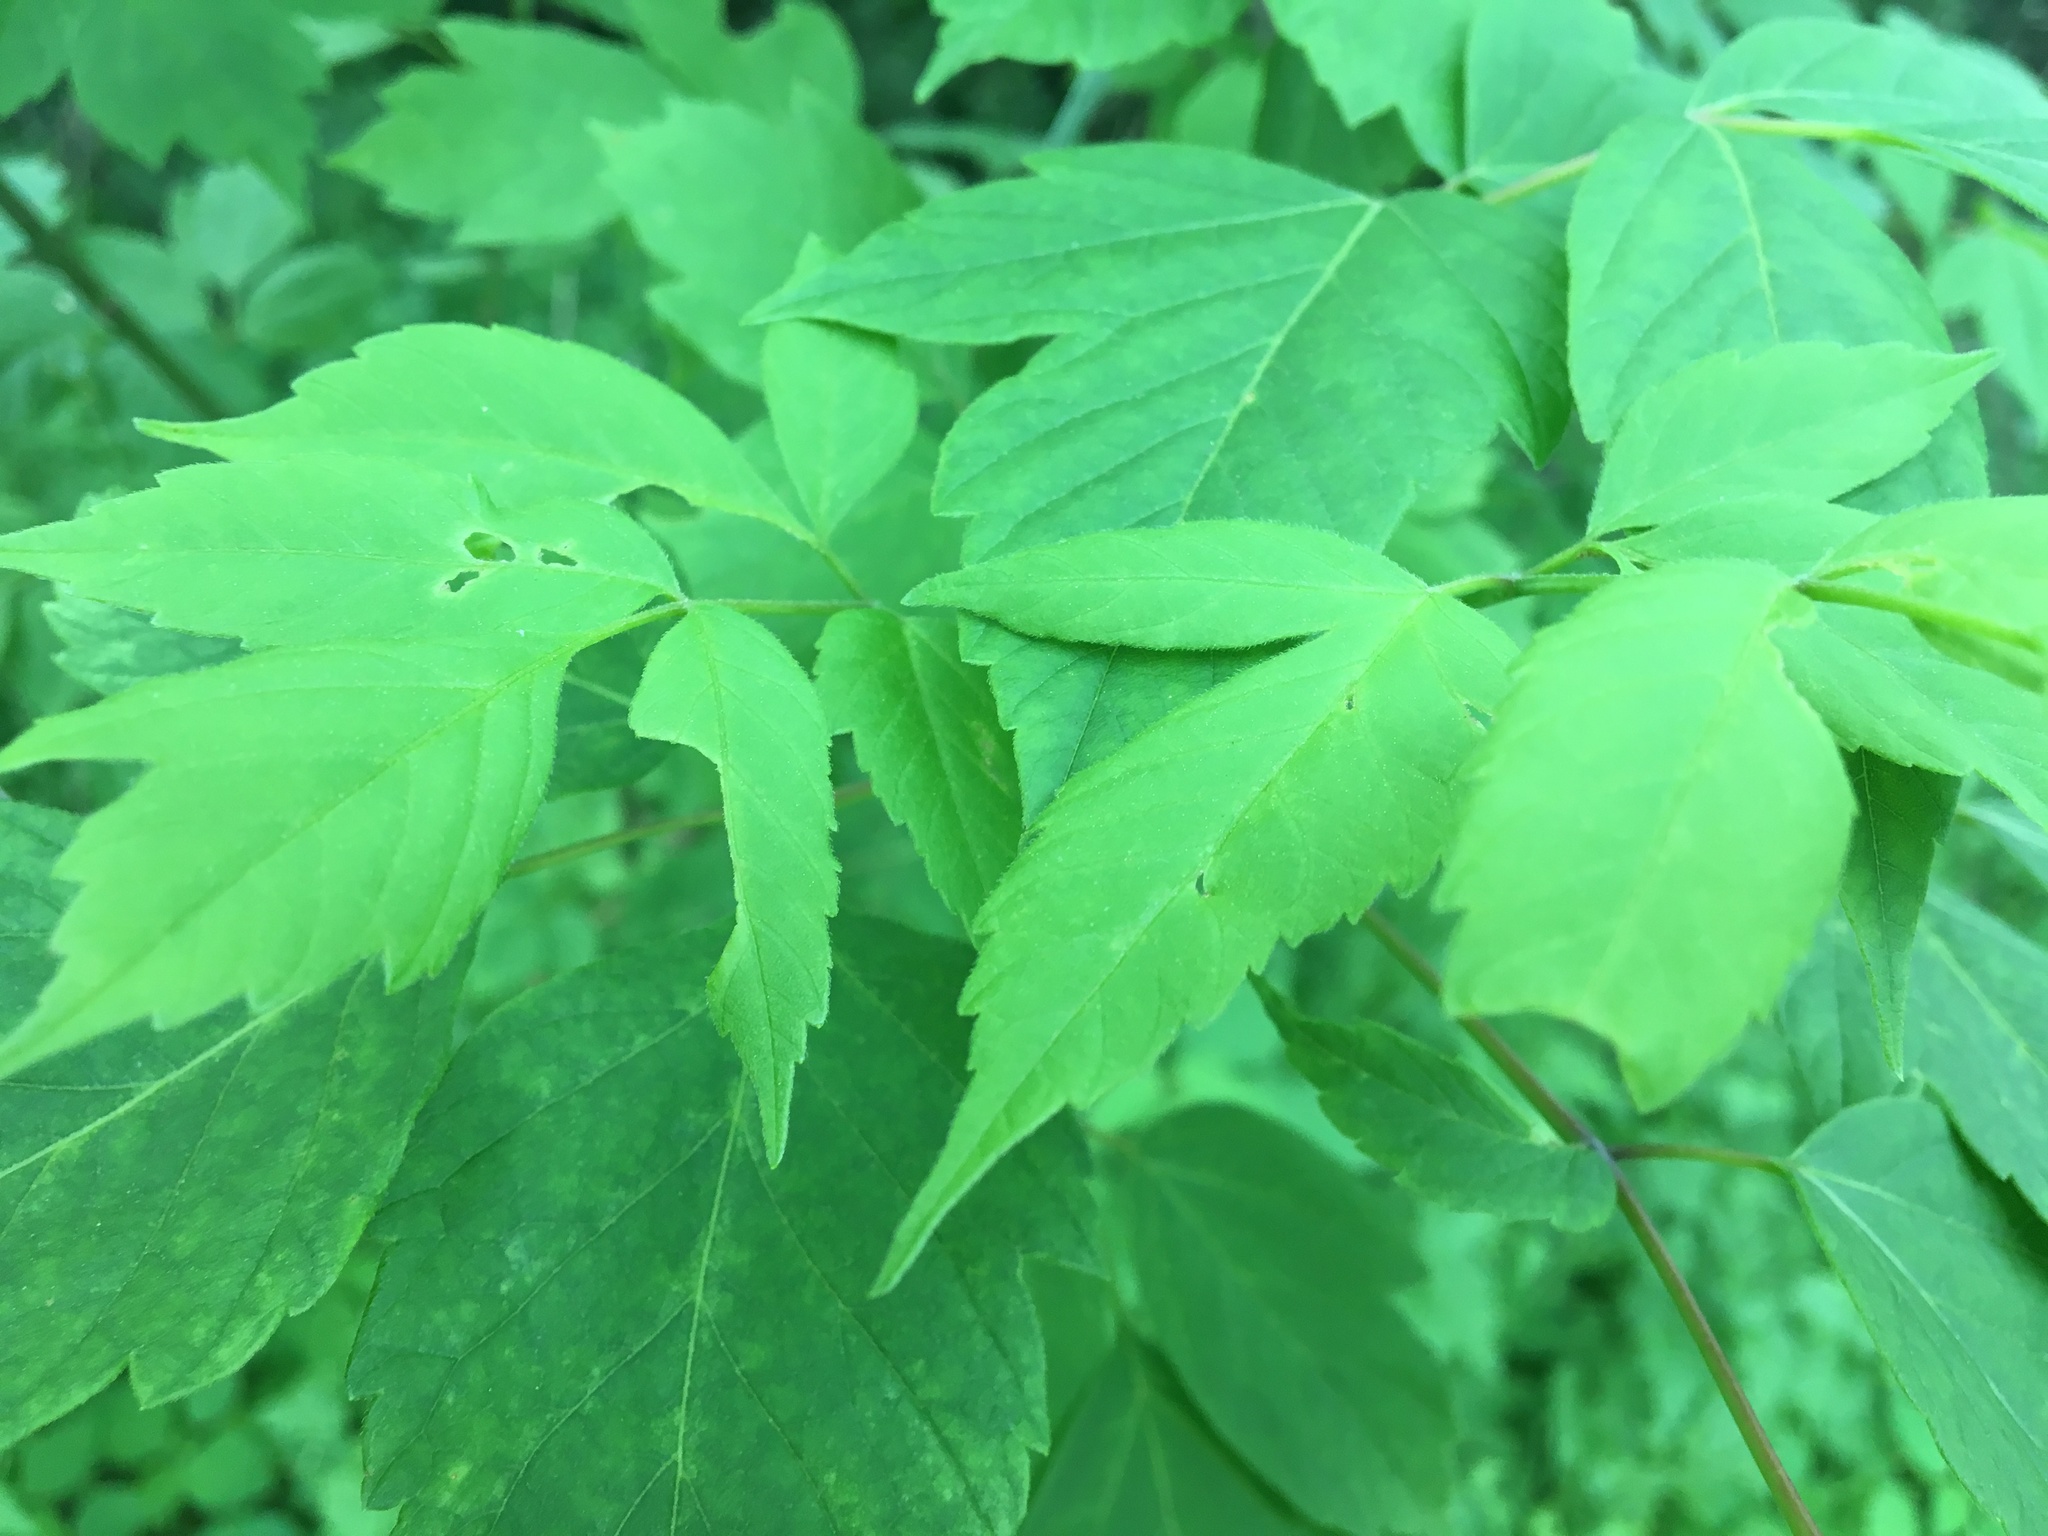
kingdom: Plantae
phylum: Tracheophyta
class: Magnoliopsida
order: Sapindales
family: Sapindaceae
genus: Acer
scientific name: Acer negundo
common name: Ashleaf maple
